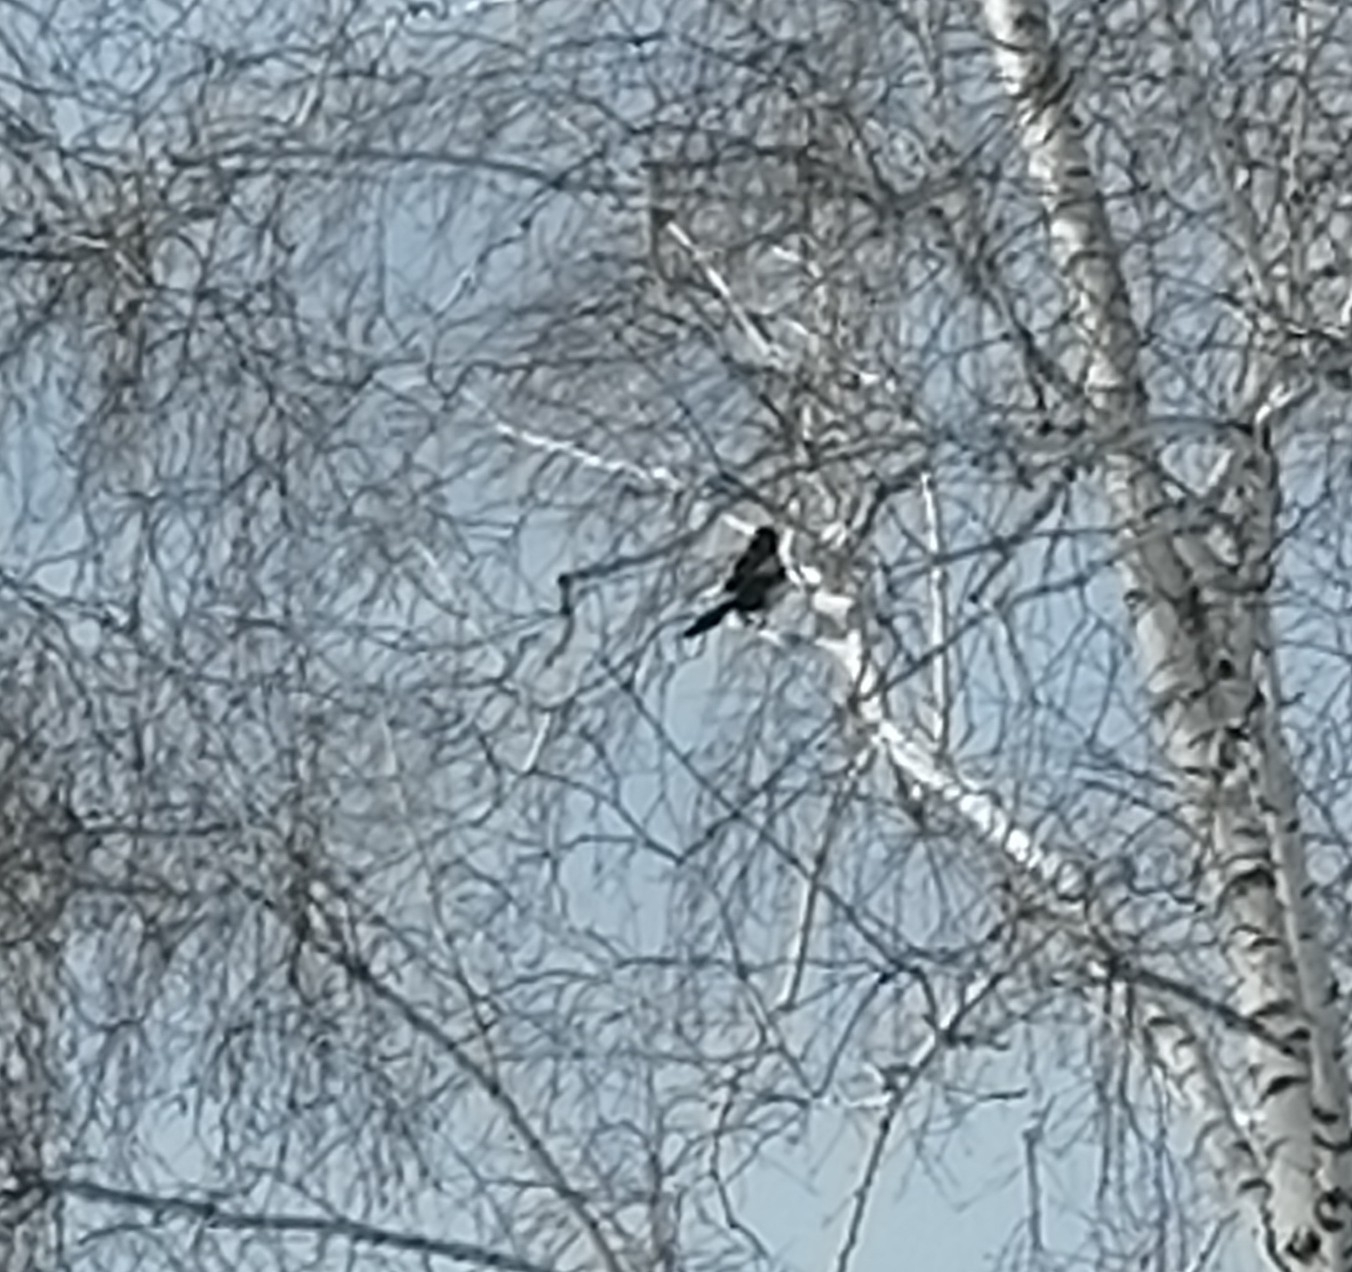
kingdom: Animalia
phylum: Chordata
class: Aves
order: Passeriformes
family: Corvidae
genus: Pica
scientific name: Pica pica
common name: Eurasian magpie
